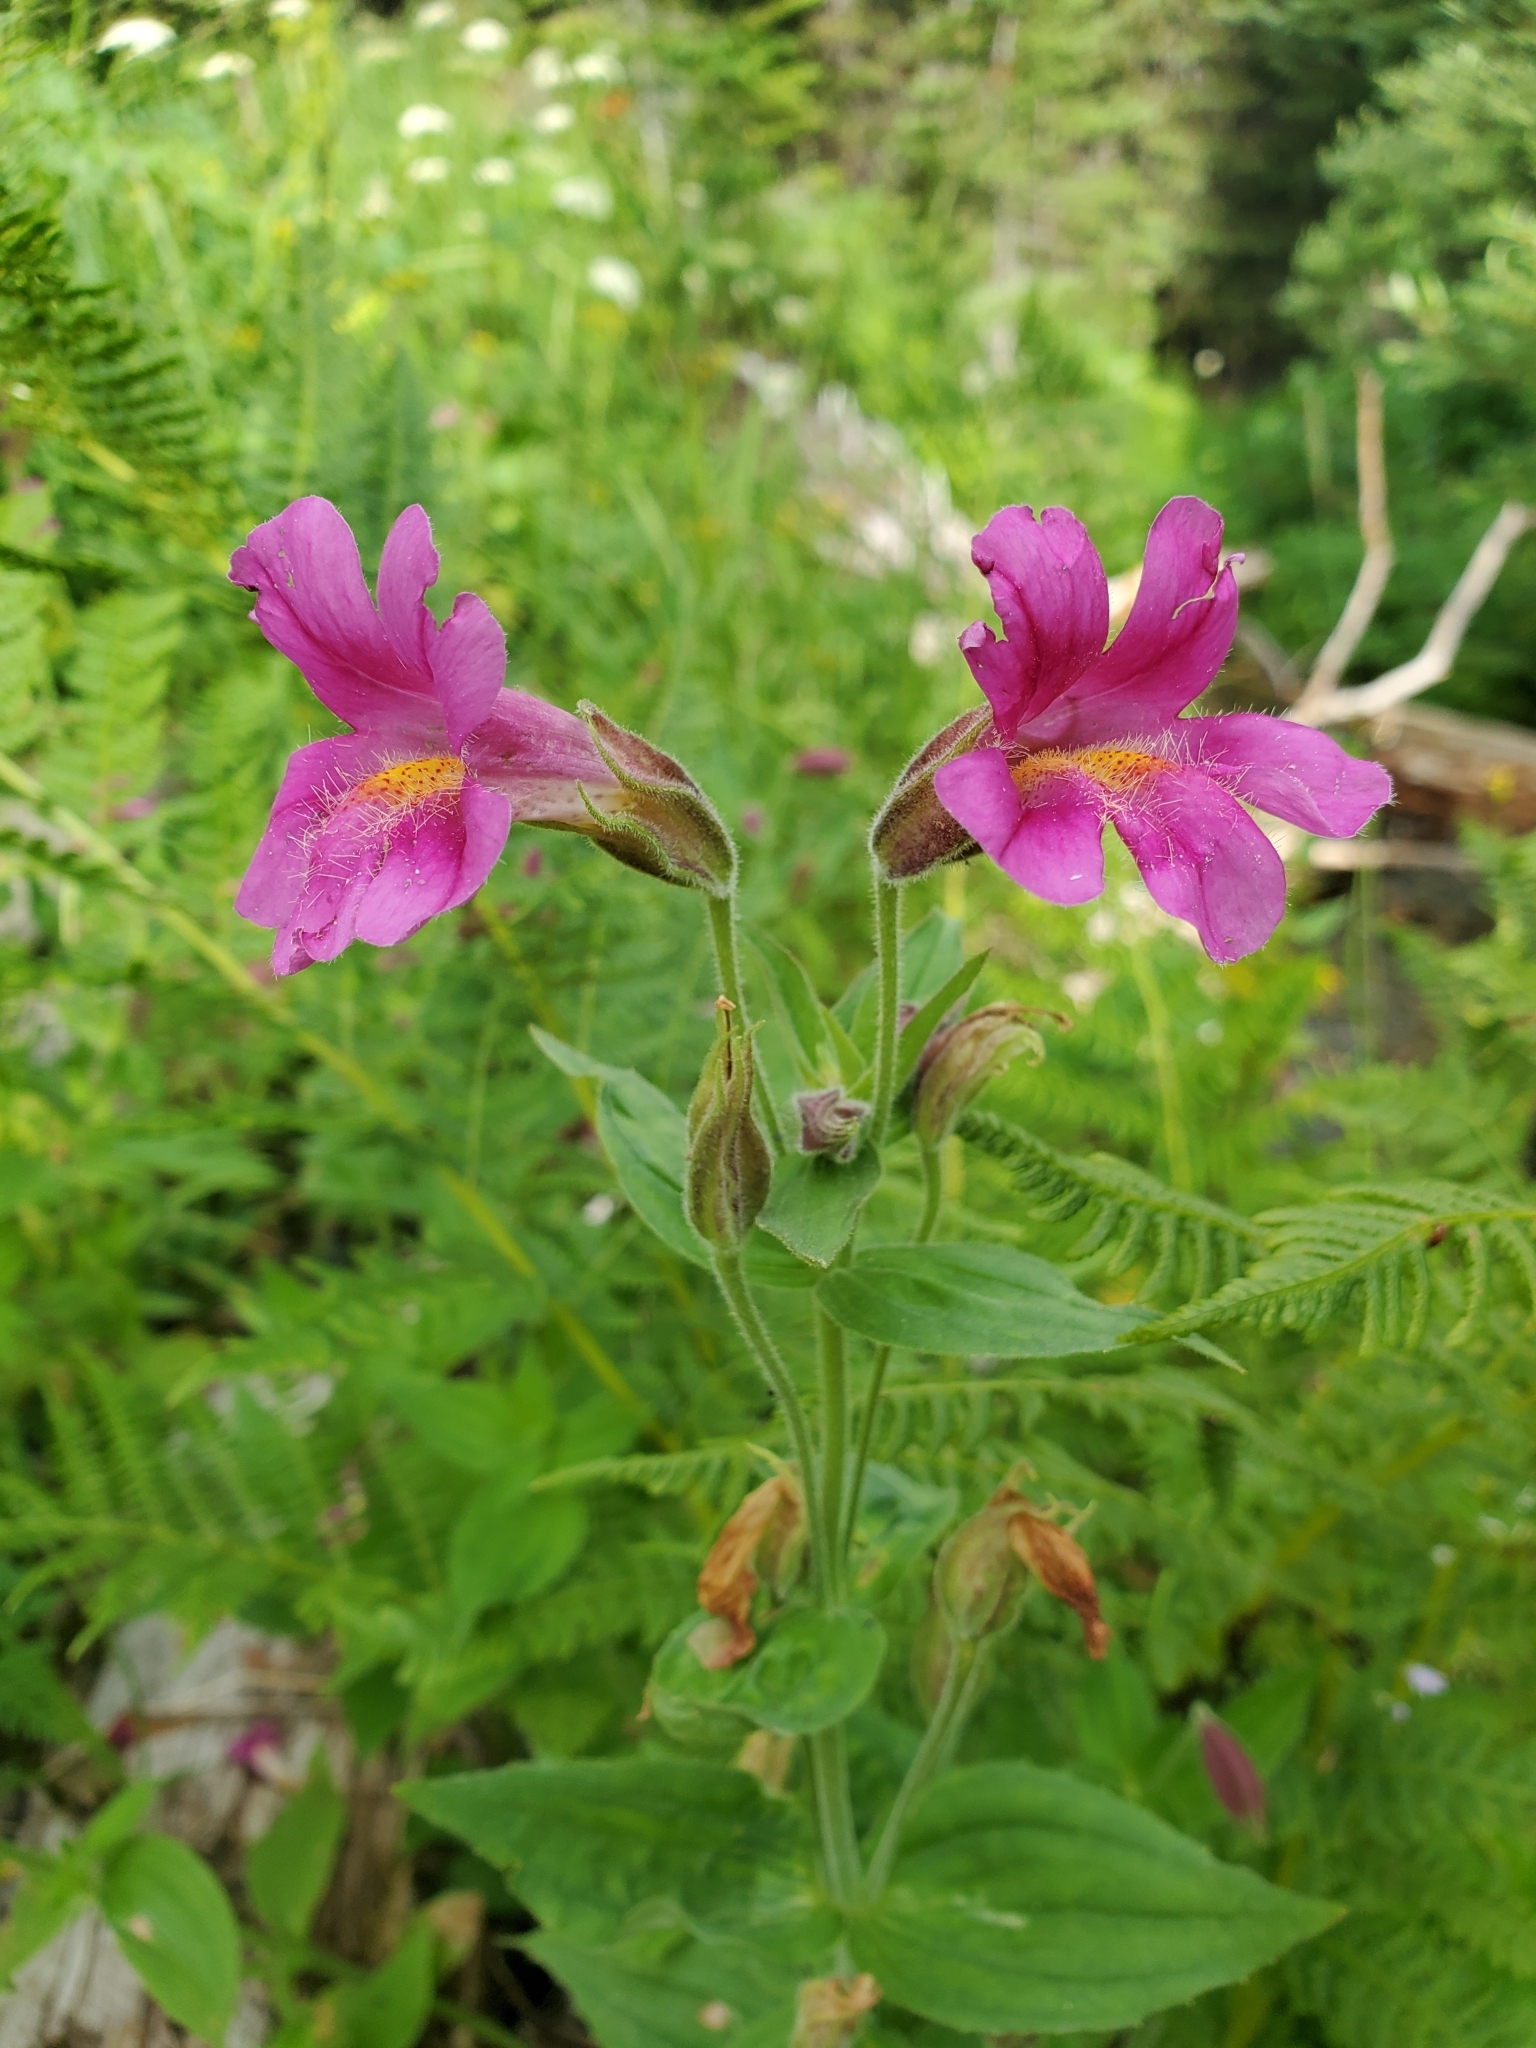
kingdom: Plantae
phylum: Tracheophyta
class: Magnoliopsida
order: Lamiales
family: Phrymaceae
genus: Erythranthe
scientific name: Erythranthe lewisii
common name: Lewis's monkey-flower
